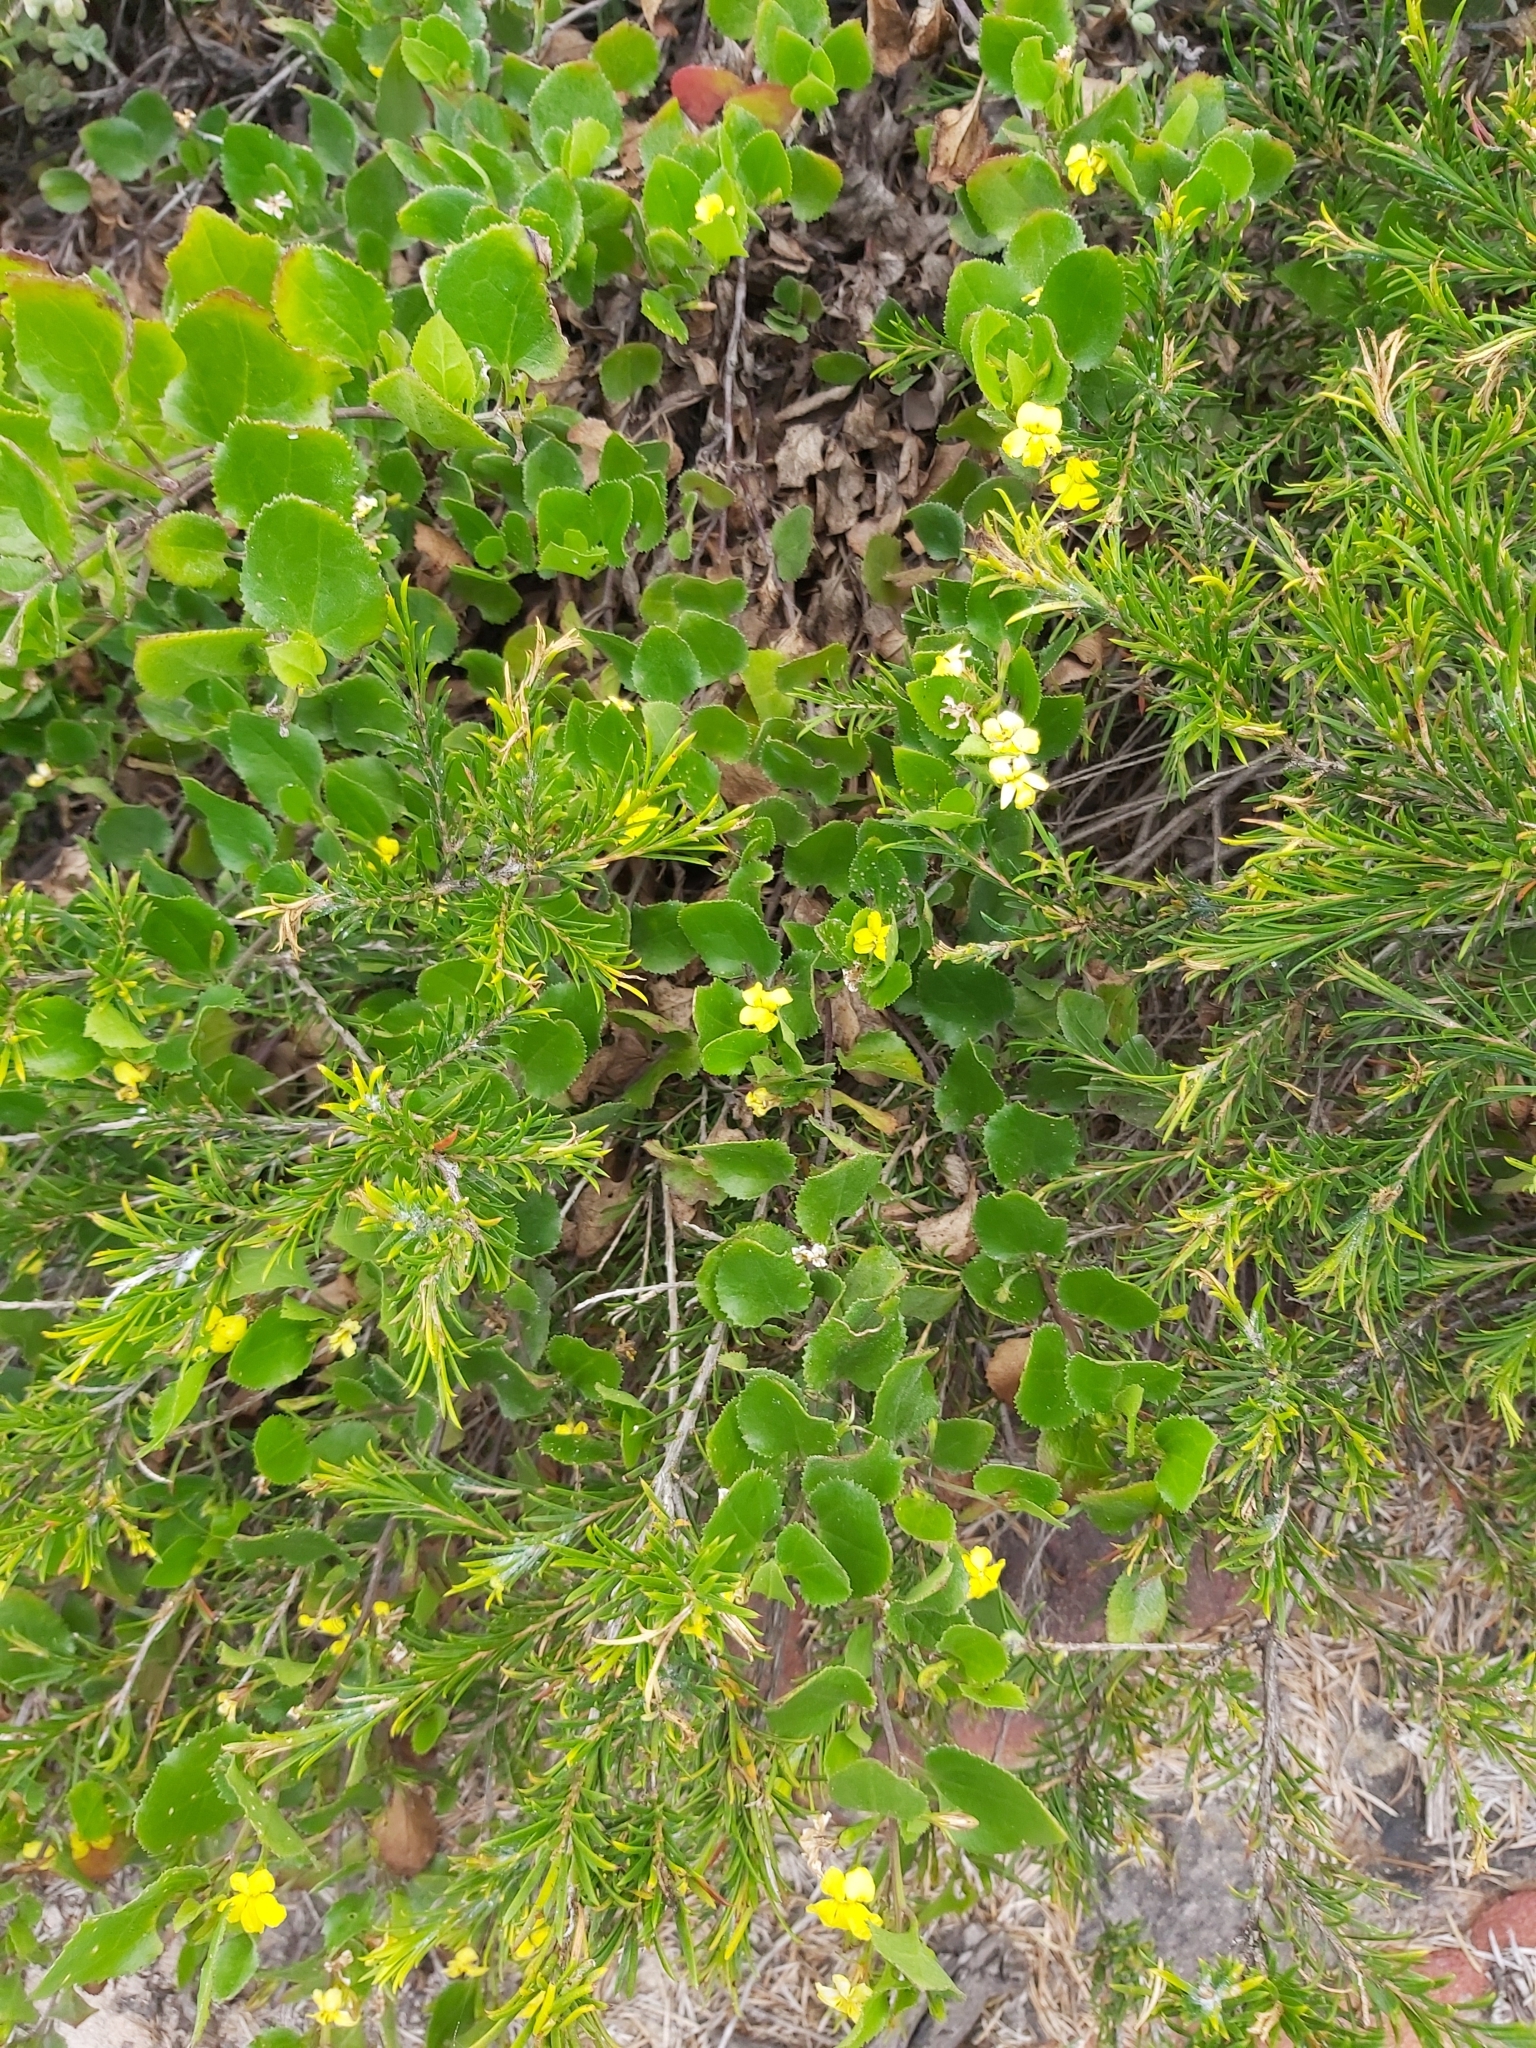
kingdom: Plantae
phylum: Tracheophyta
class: Magnoliopsida
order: Asterales
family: Goodeniaceae
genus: Goodenia
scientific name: Goodenia ovata
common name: Hop goodenia
